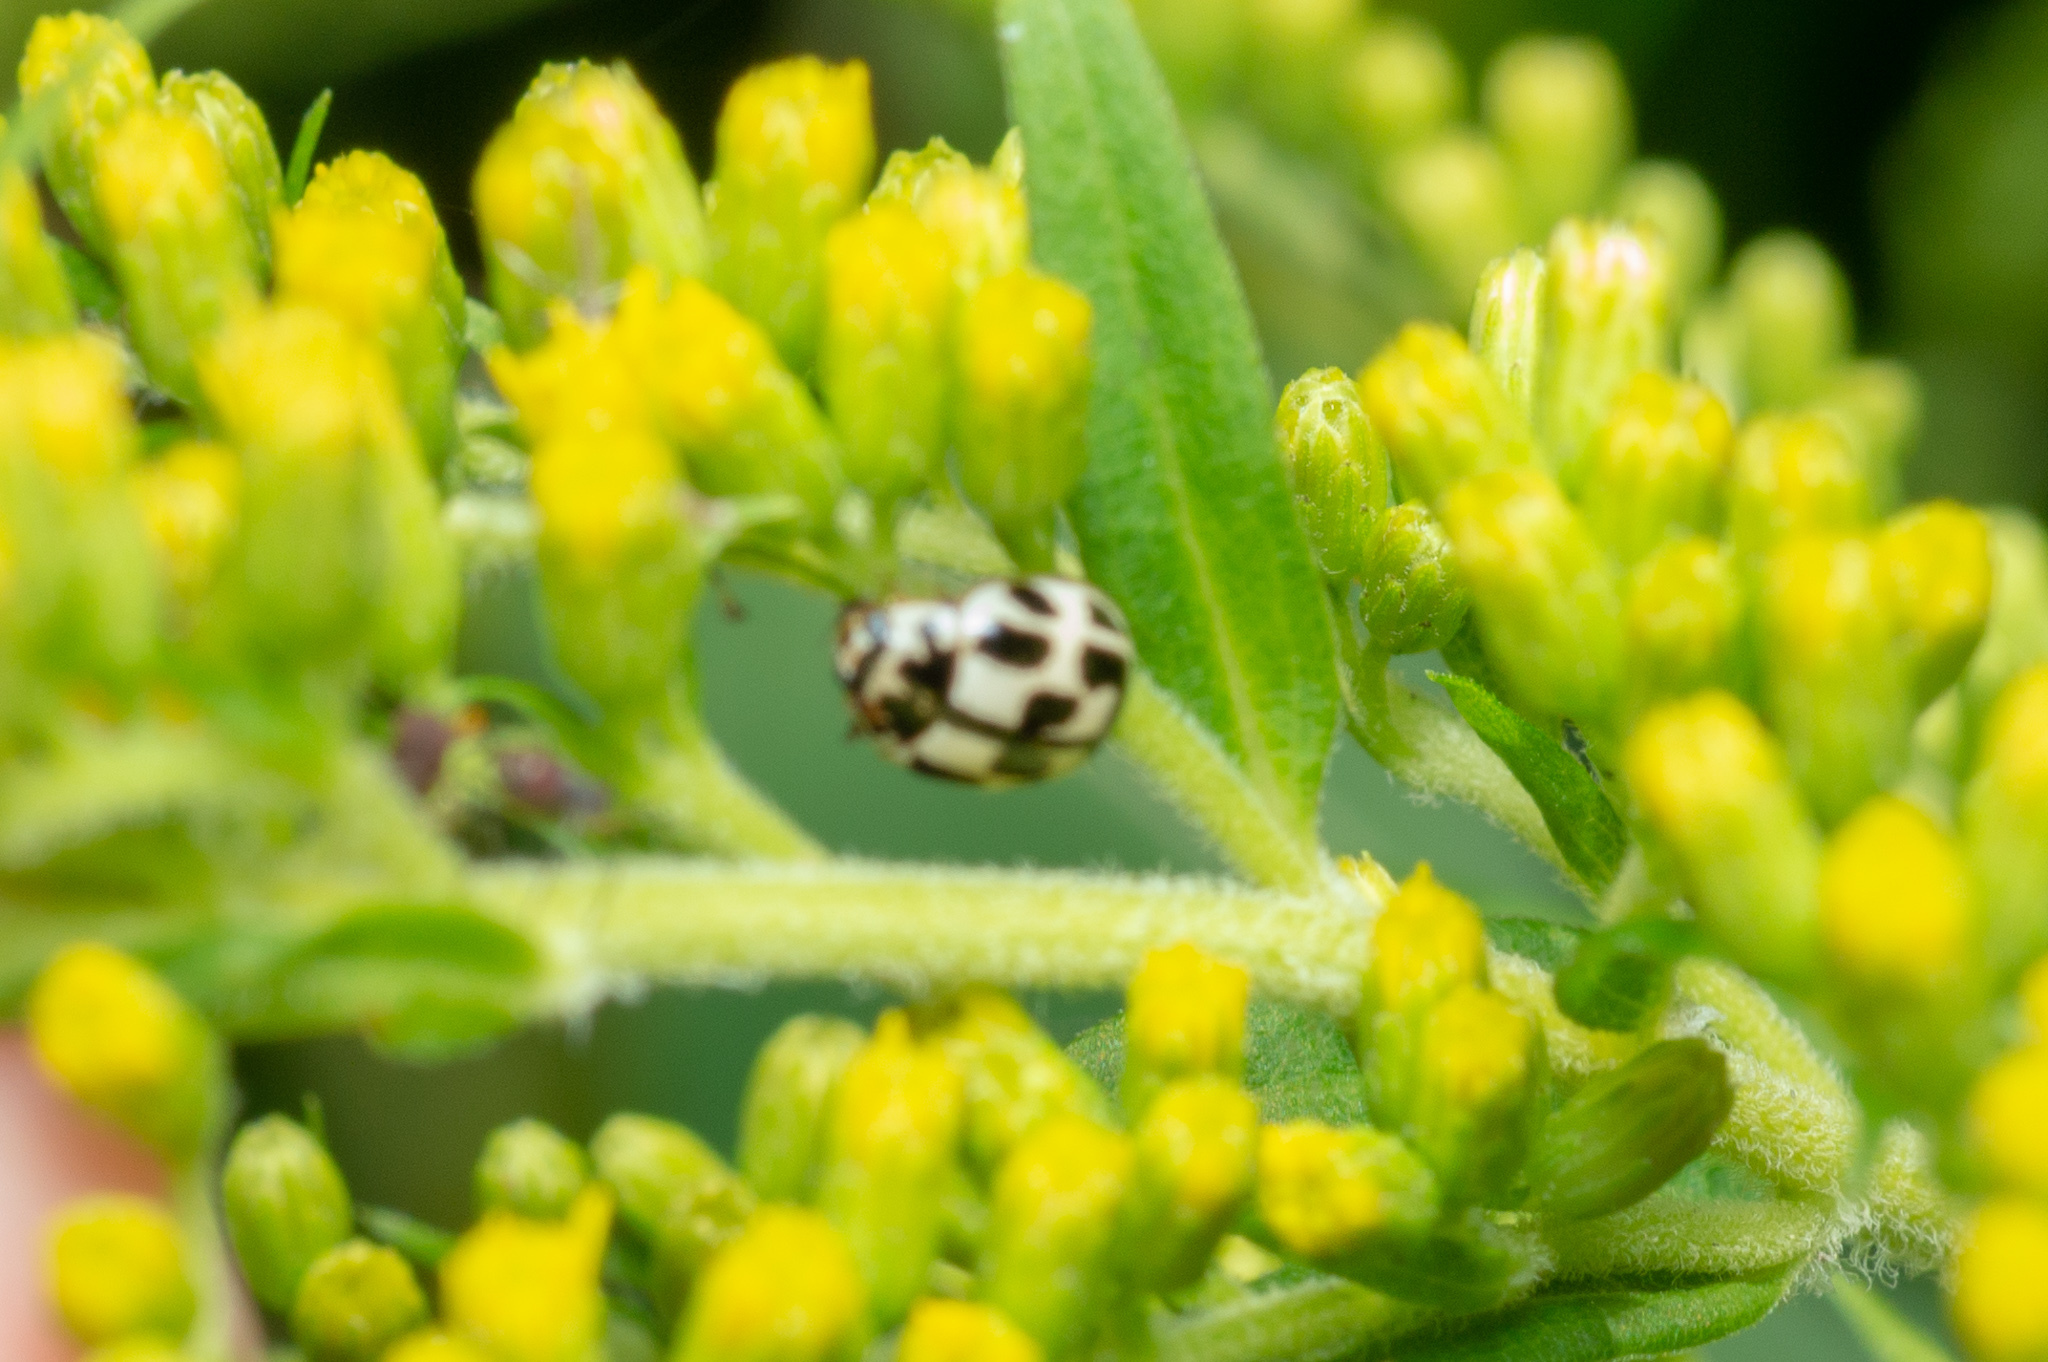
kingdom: Animalia
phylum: Arthropoda
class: Insecta
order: Coleoptera
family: Coccinellidae
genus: Propylaea
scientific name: Propylaea quatuordecimpunctata
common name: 14-spotted ladybird beetle
